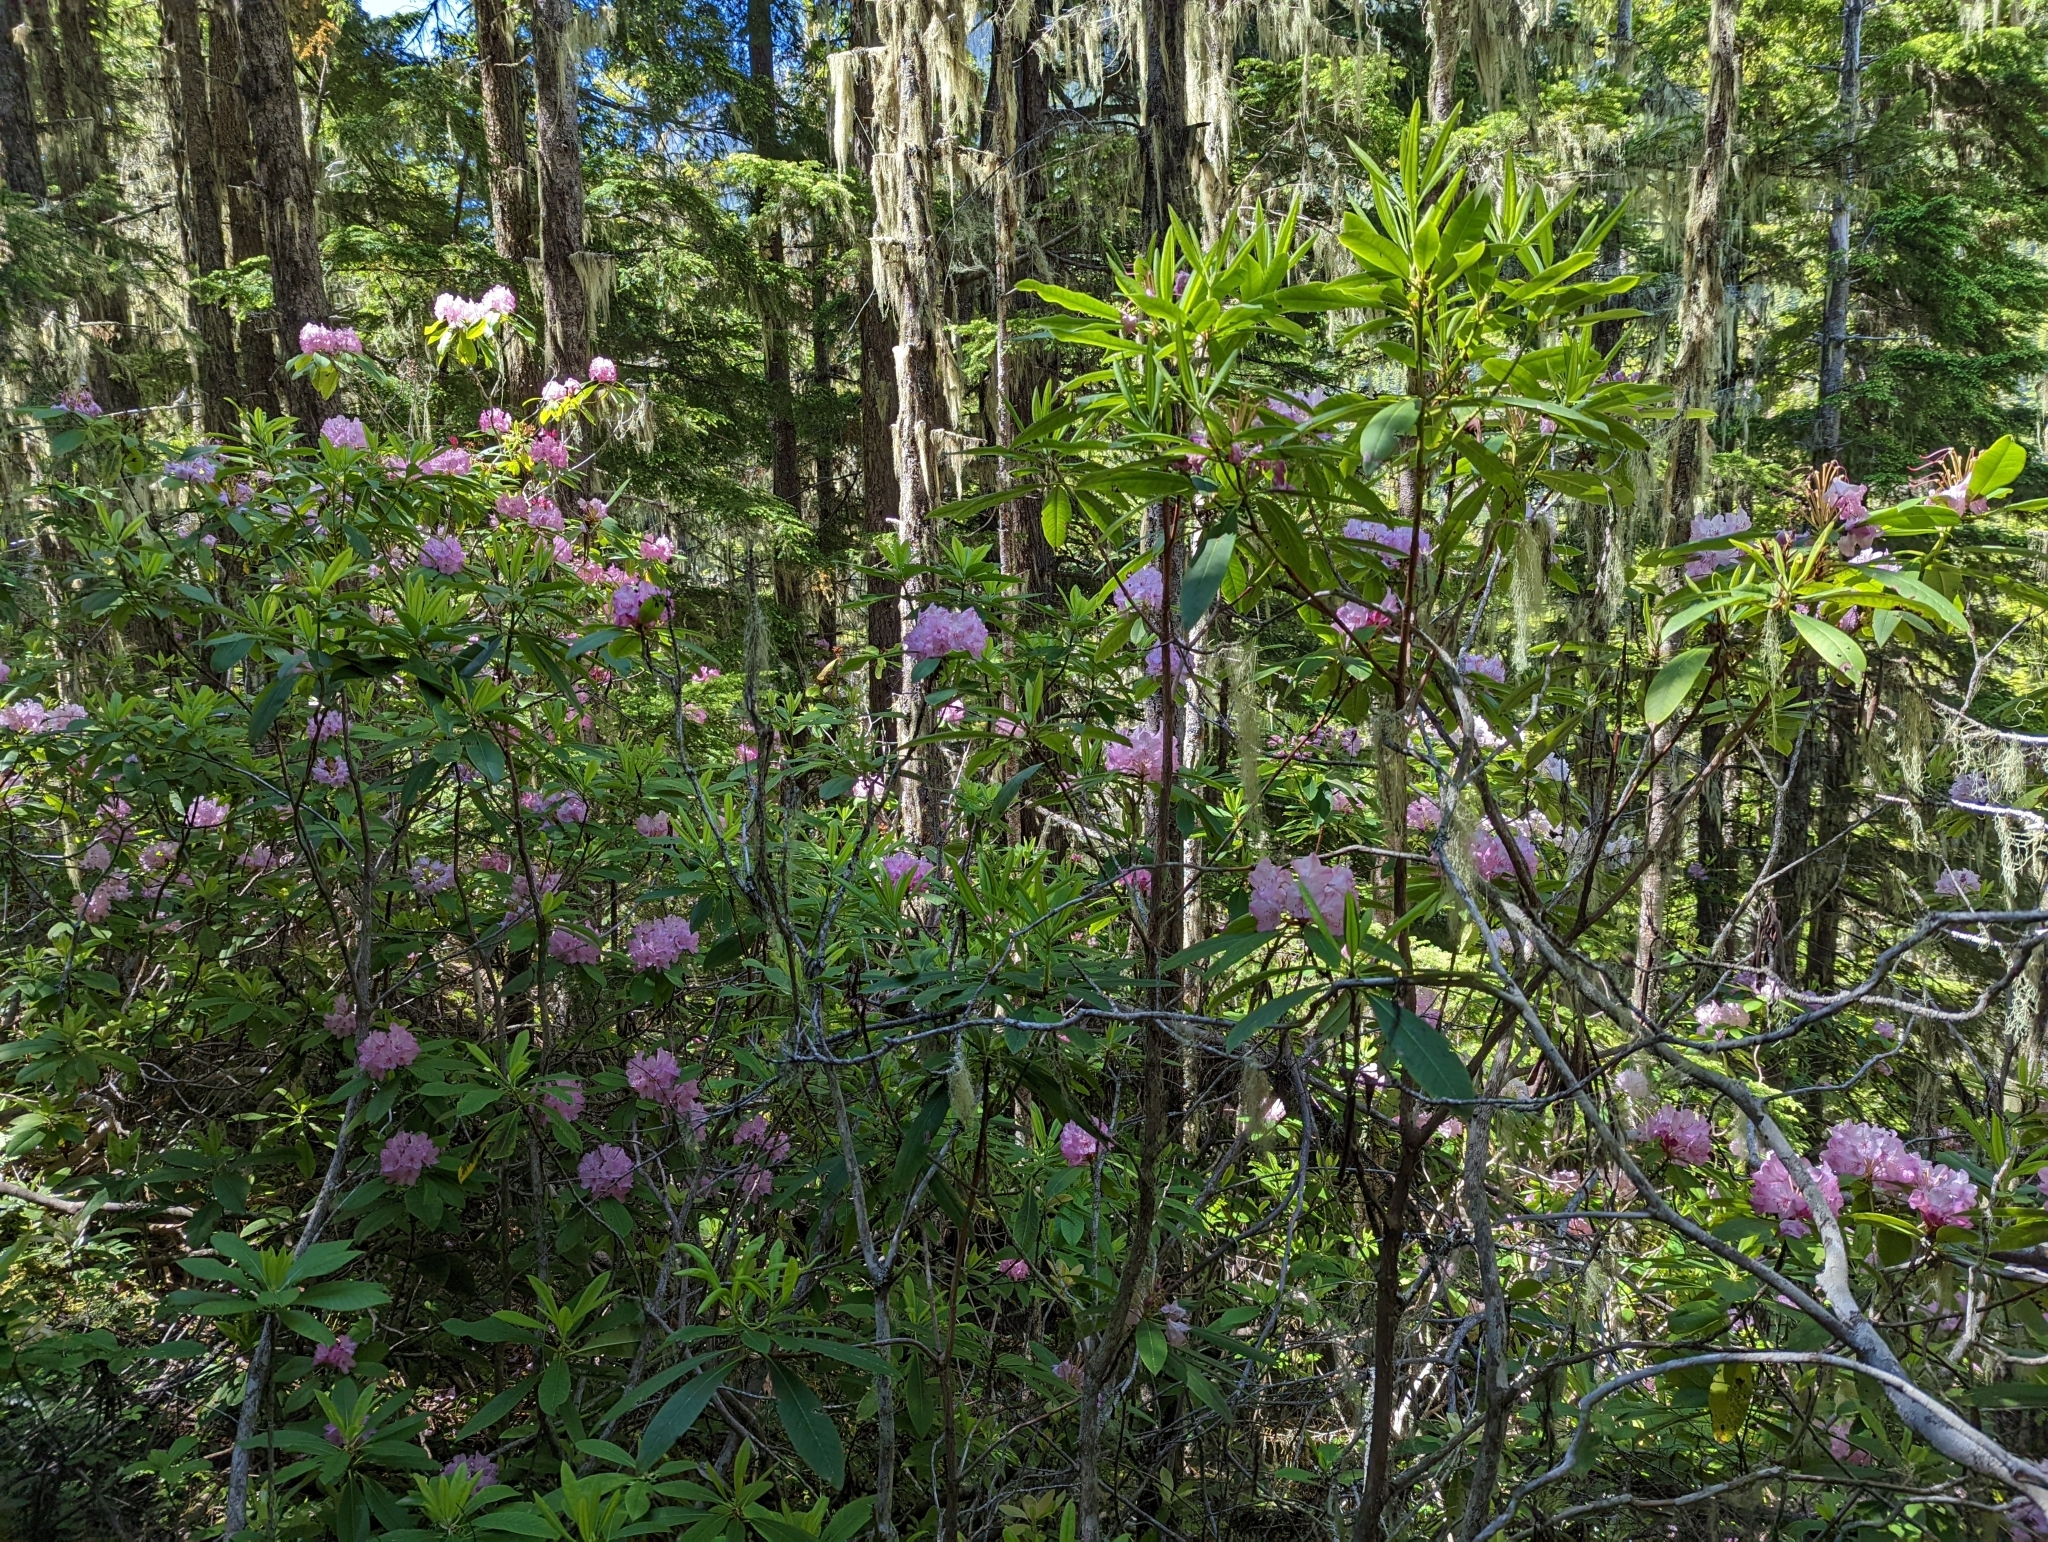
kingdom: Plantae
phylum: Tracheophyta
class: Magnoliopsida
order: Ericales
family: Ericaceae
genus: Rhododendron
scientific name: Rhododendron macrophyllum
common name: California rose bay
